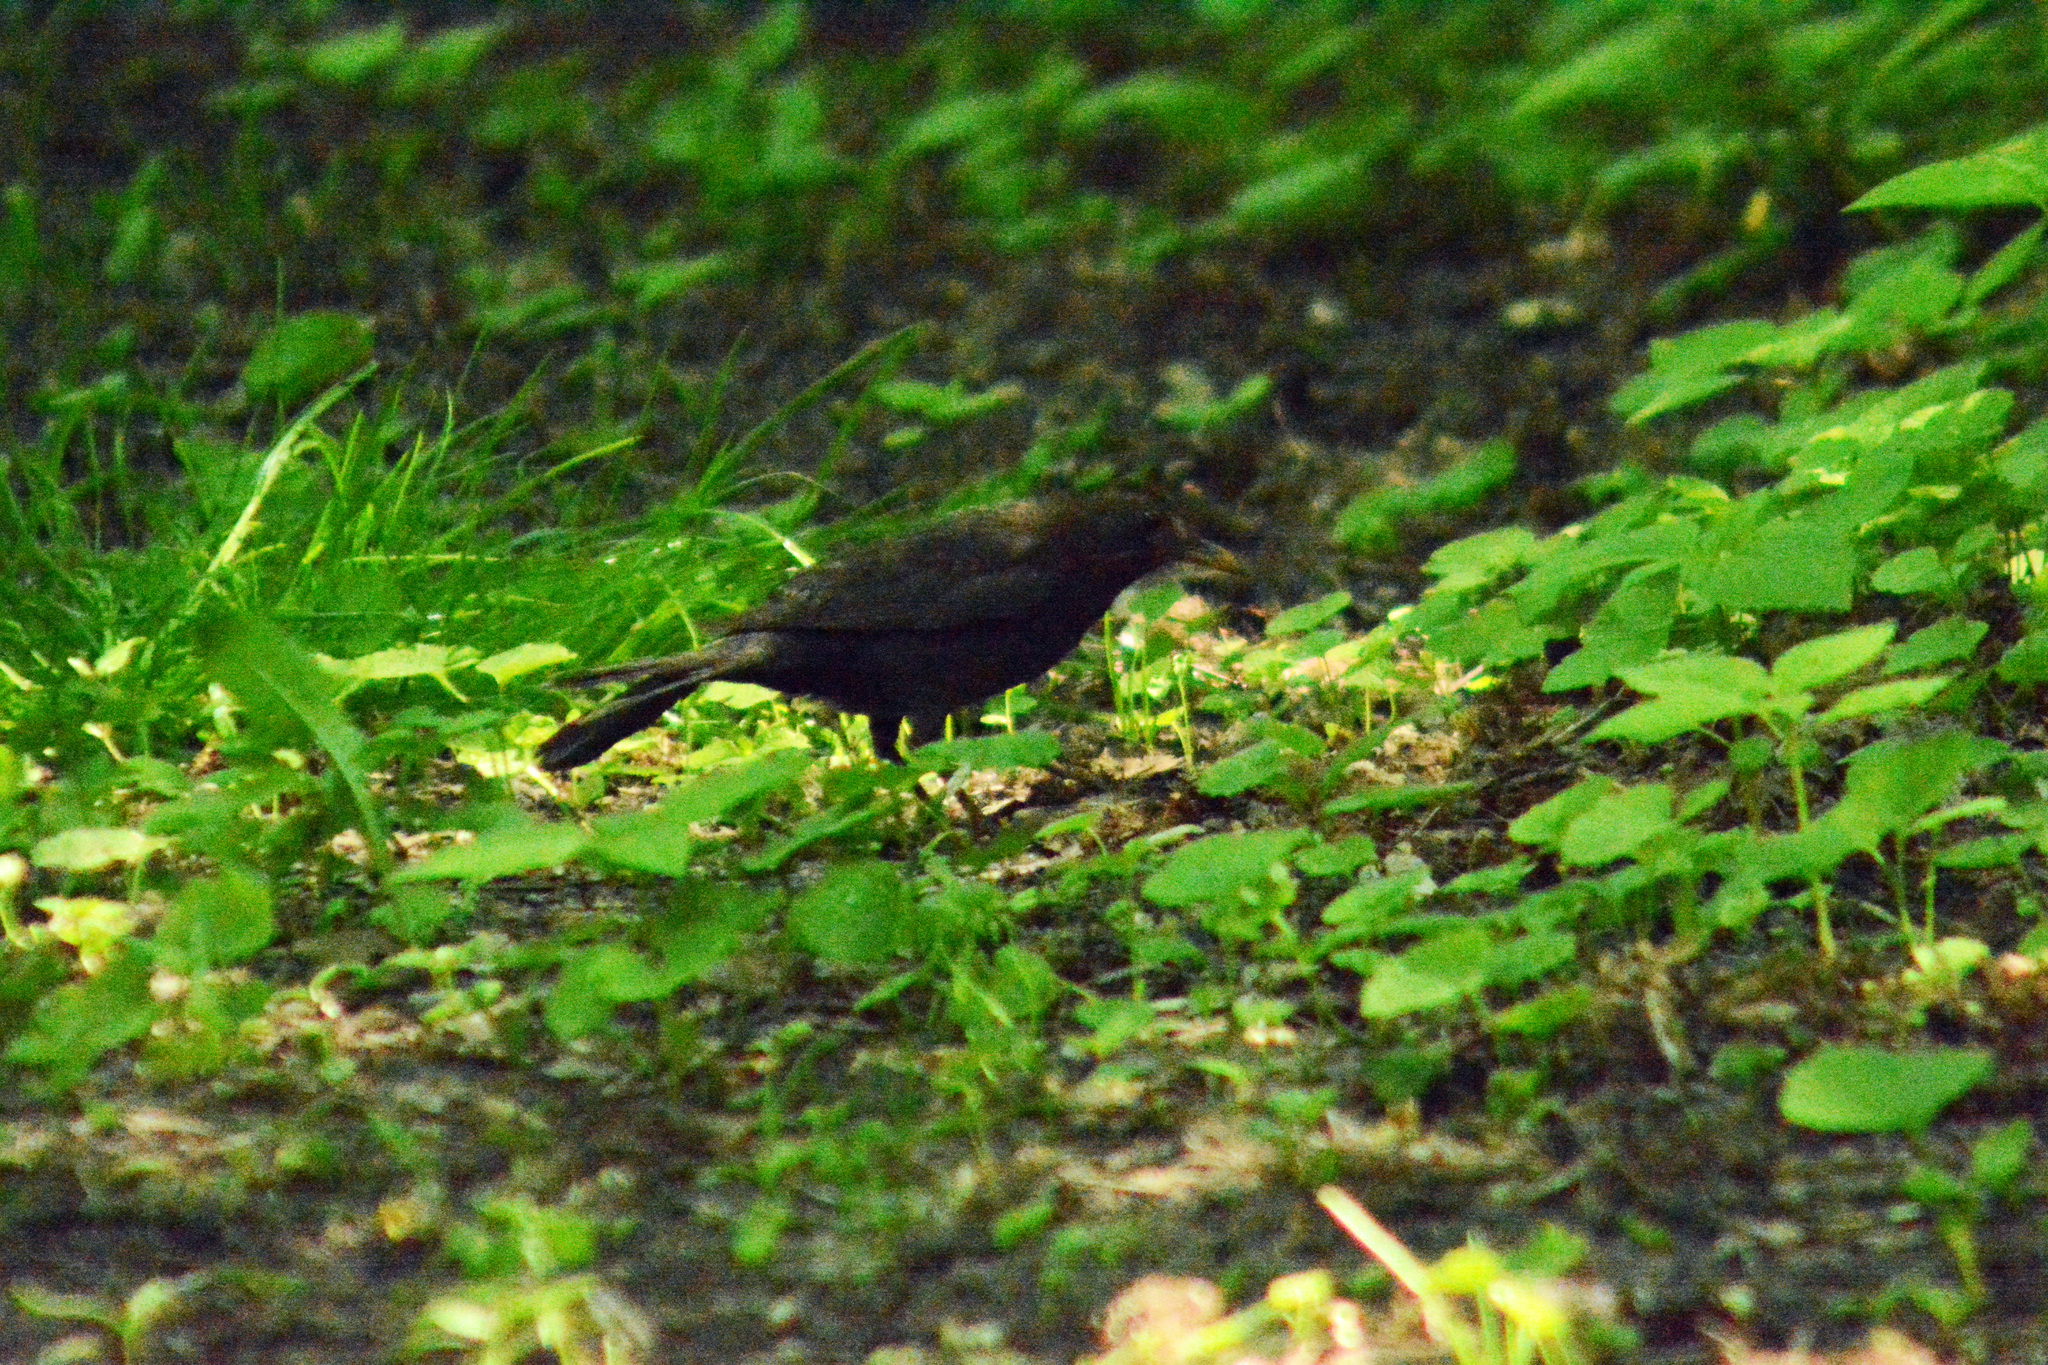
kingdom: Animalia
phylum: Chordata
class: Aves
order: Passeriformes
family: Turdidae
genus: Turdus
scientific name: Turdus merula
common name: Common blackbird
